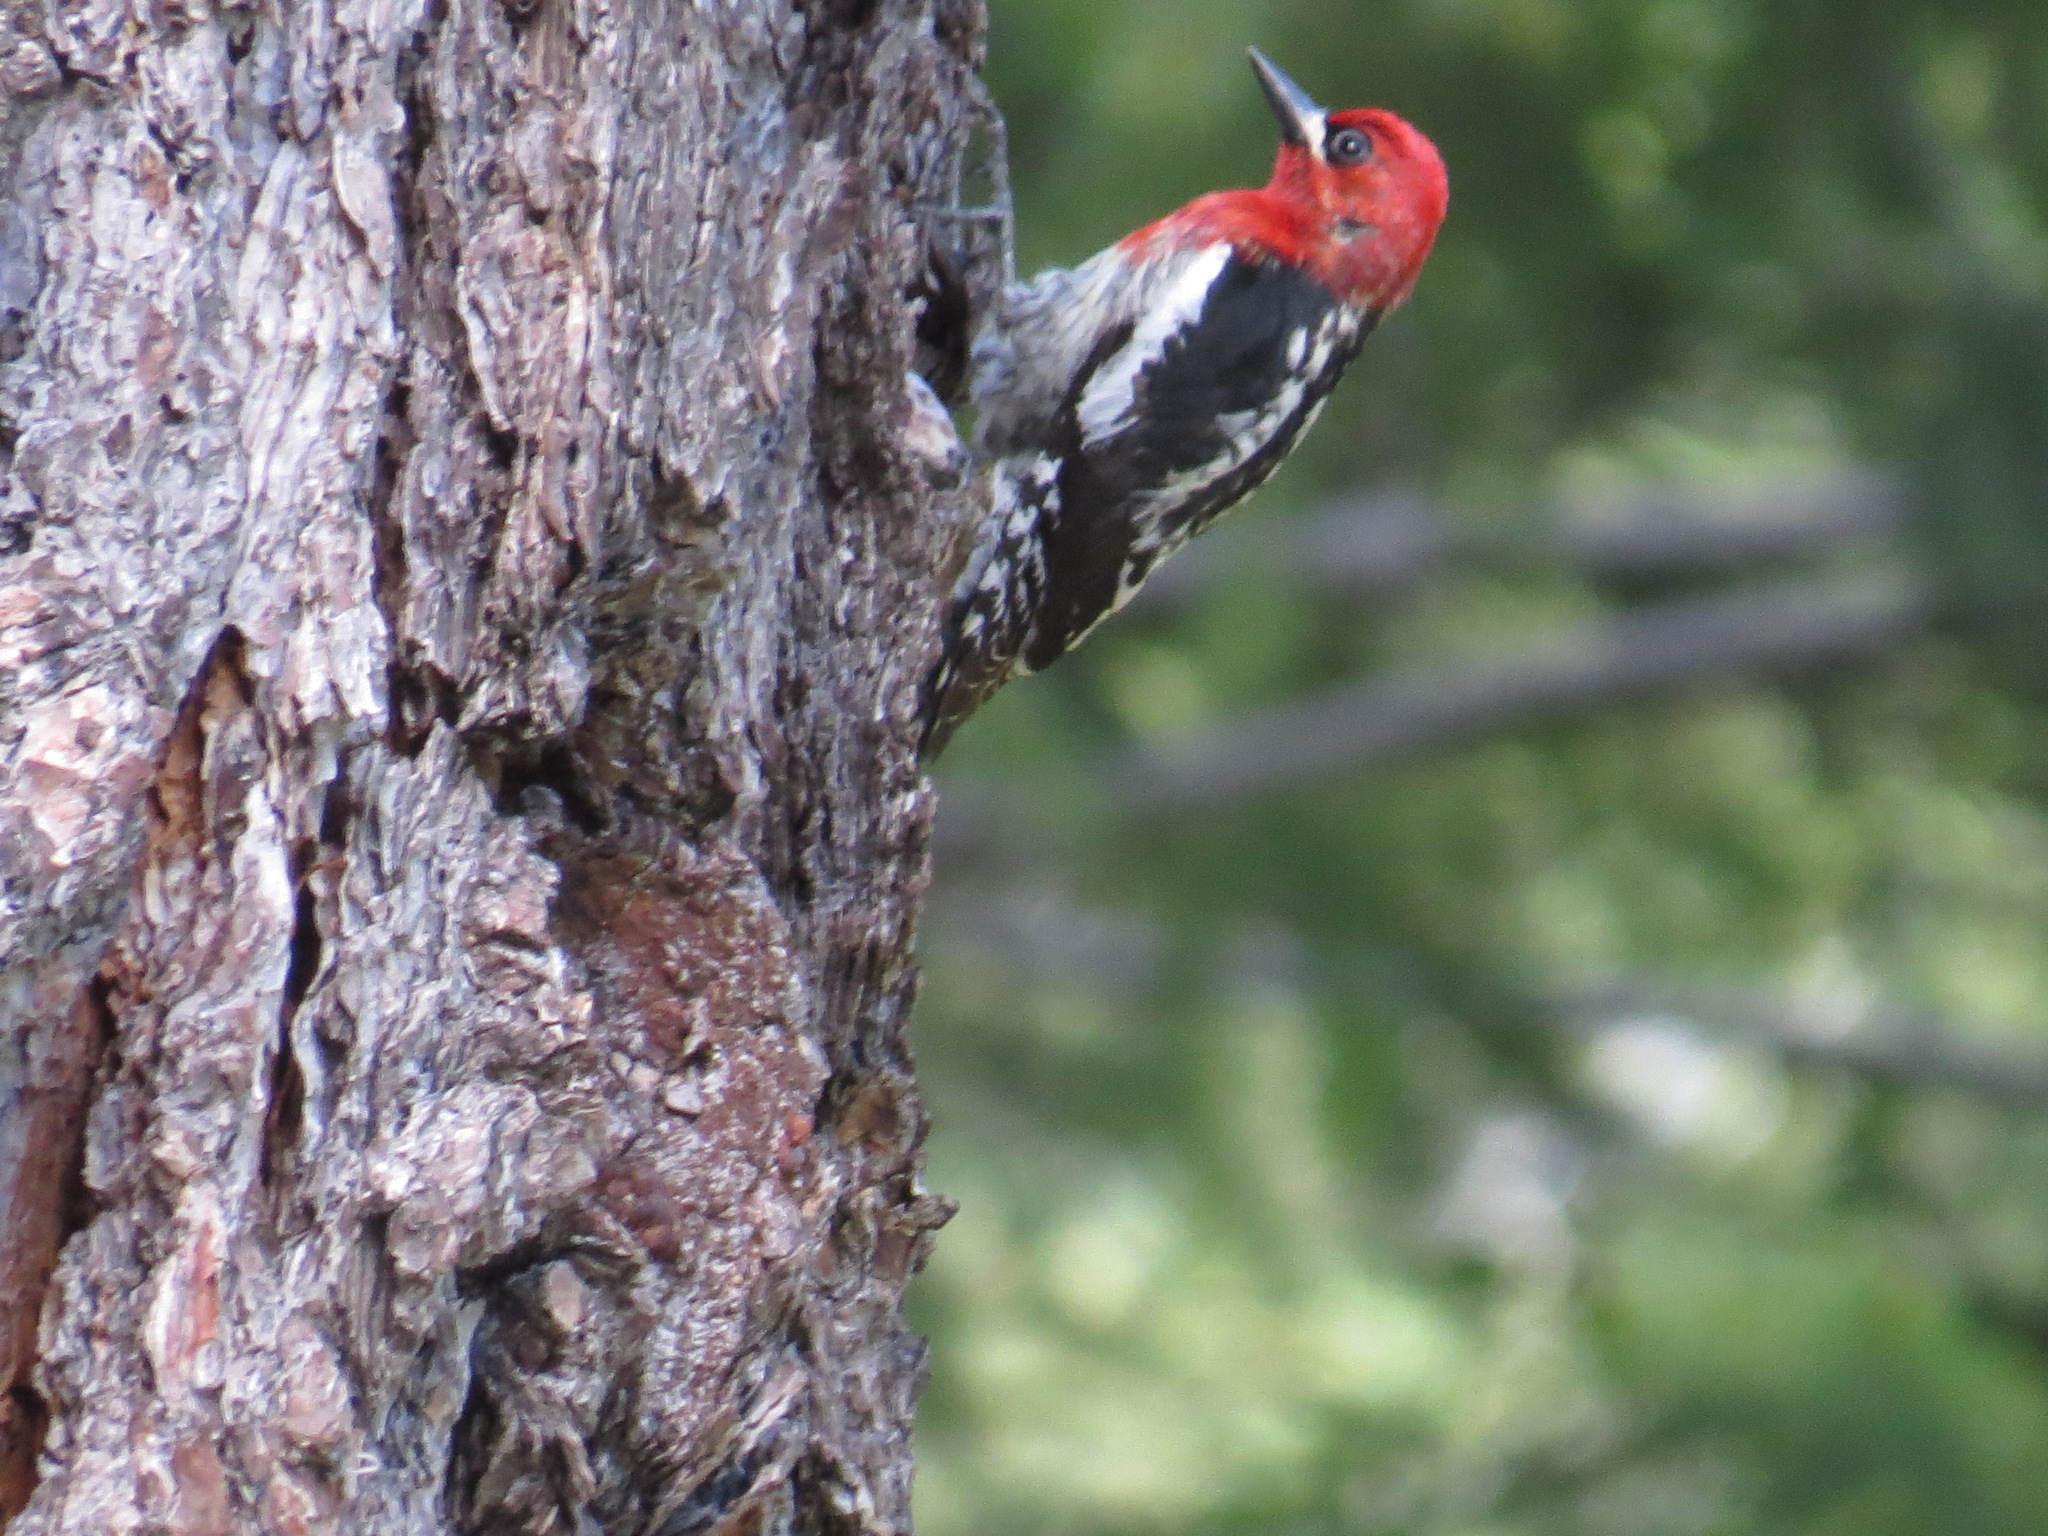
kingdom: Animalia
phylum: Chordata
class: Aves
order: Piciformes
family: Picidae
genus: Sphyrapicus
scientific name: Sphyrapicus ruber
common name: Red-breasted sapsucker
